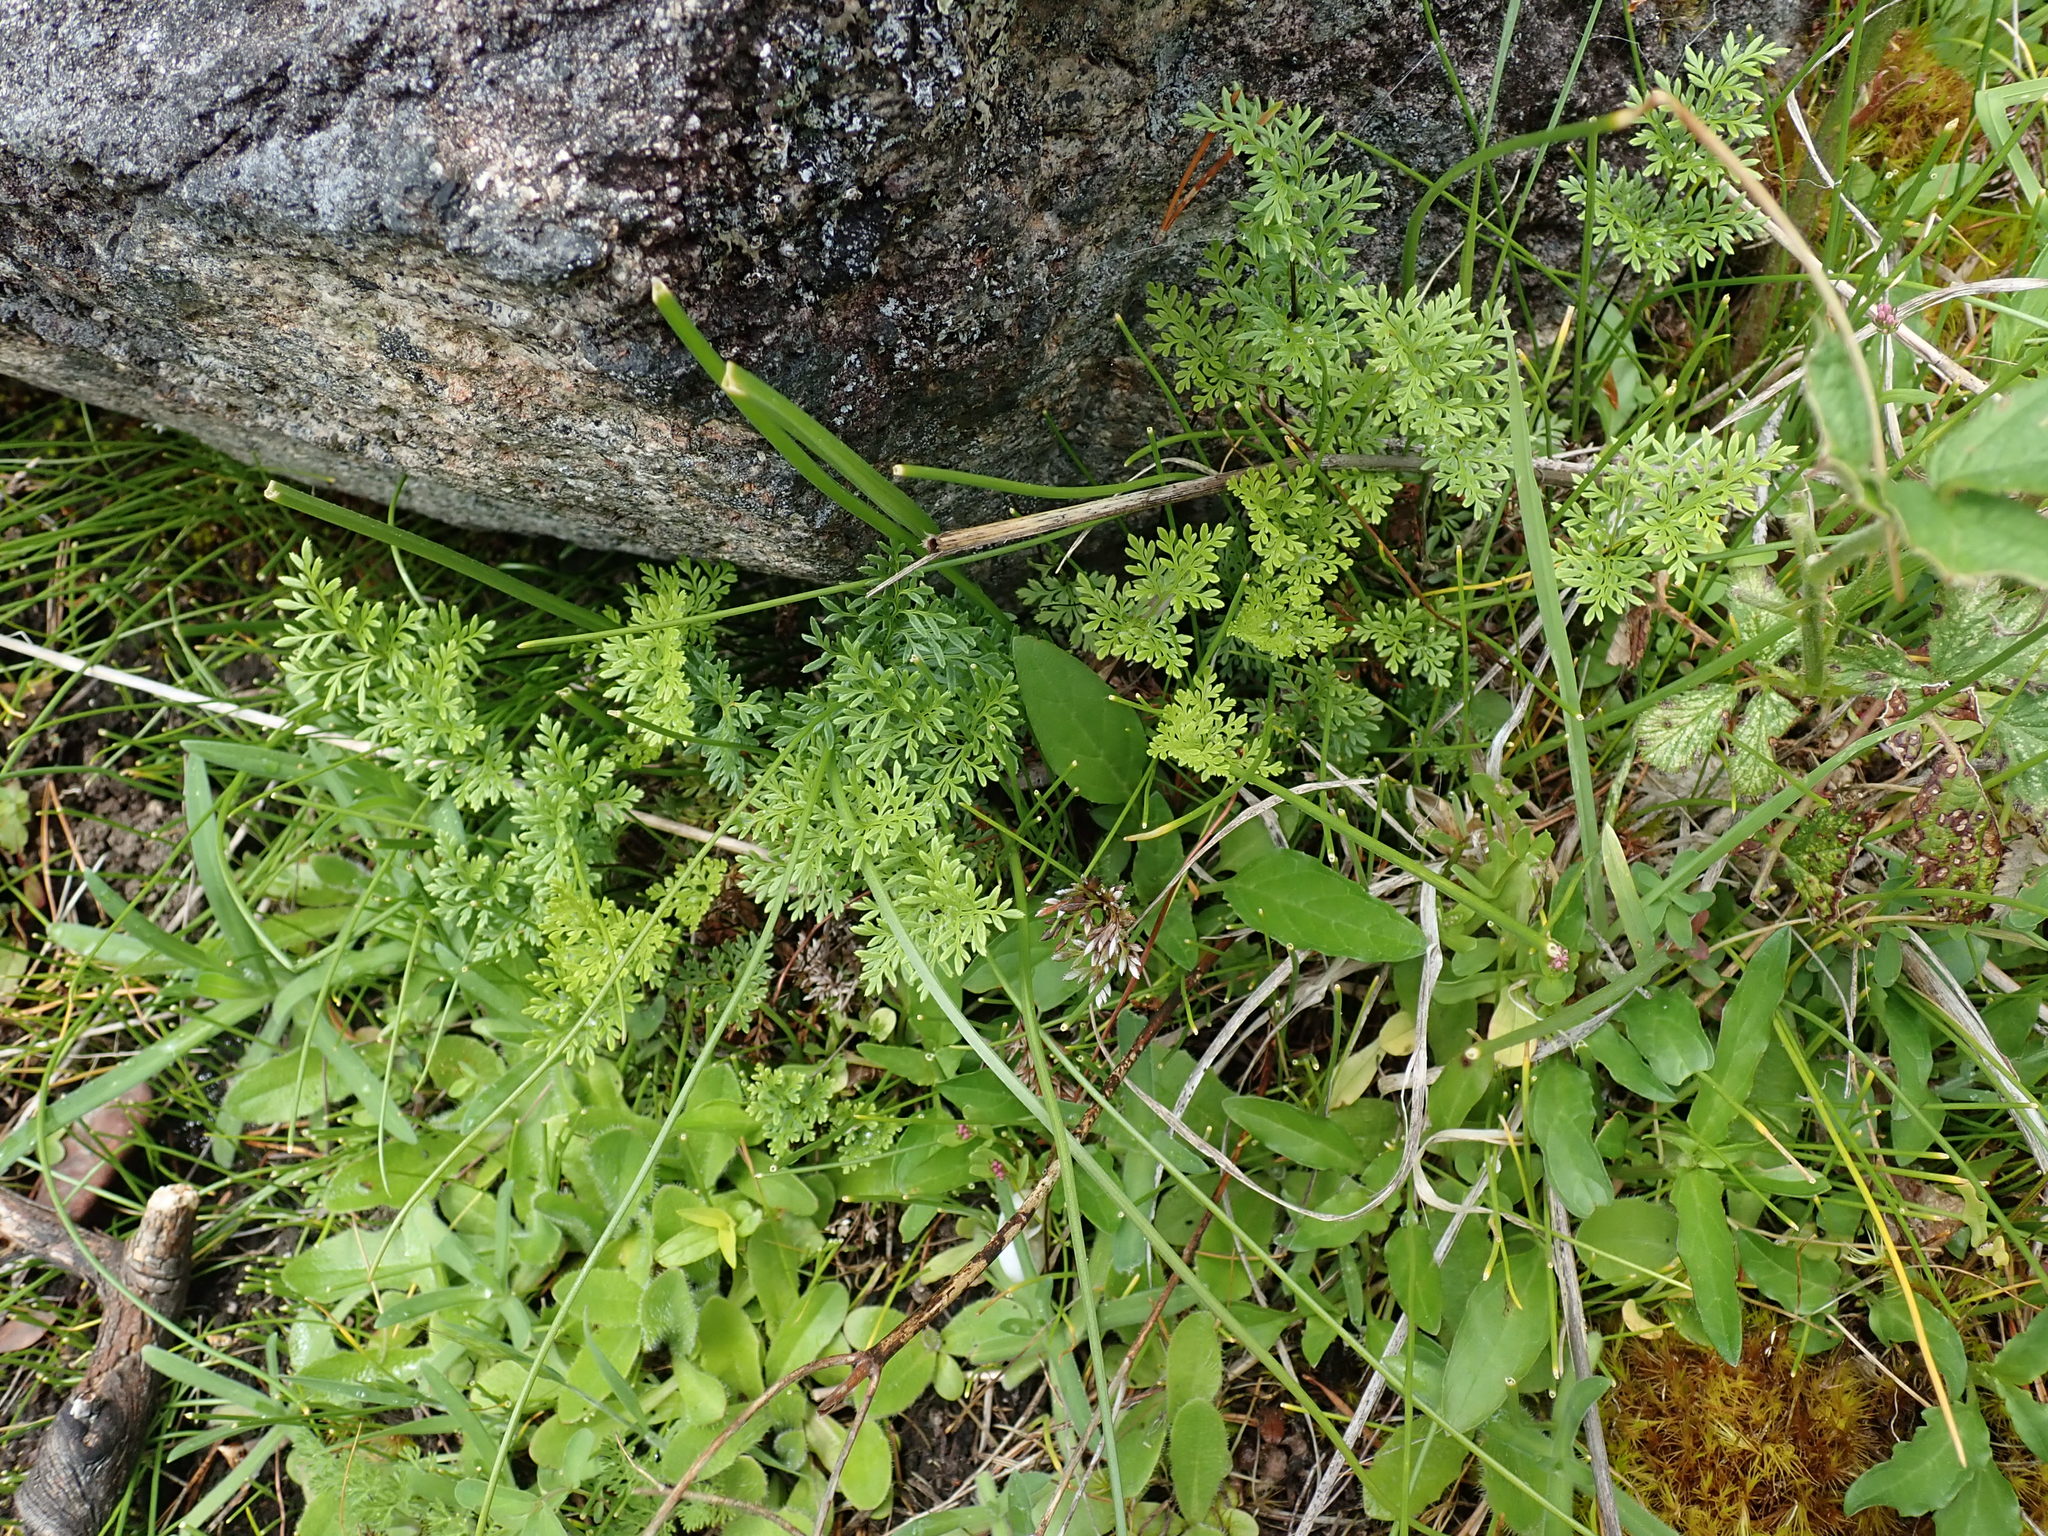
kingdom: Plantae
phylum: Tracheophyta
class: Polypodiopsida
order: Polypodiales
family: Pteridaceae
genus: Aspidotis
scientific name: Aspidotis densa
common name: Indian's dream
